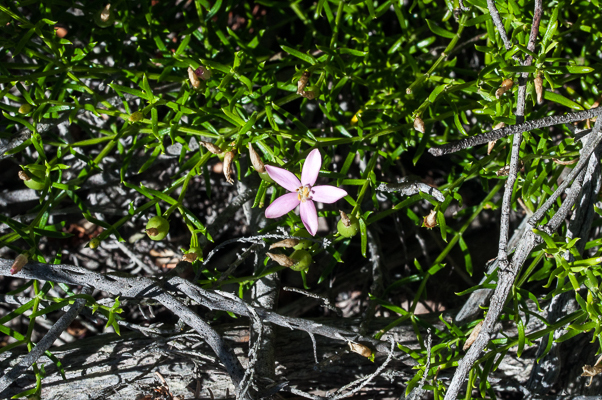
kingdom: Plantae
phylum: Tracheophyta
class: Magnoliopsida
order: Gentianales
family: Gentianaceae
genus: Chironia
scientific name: Chironia baccifera
